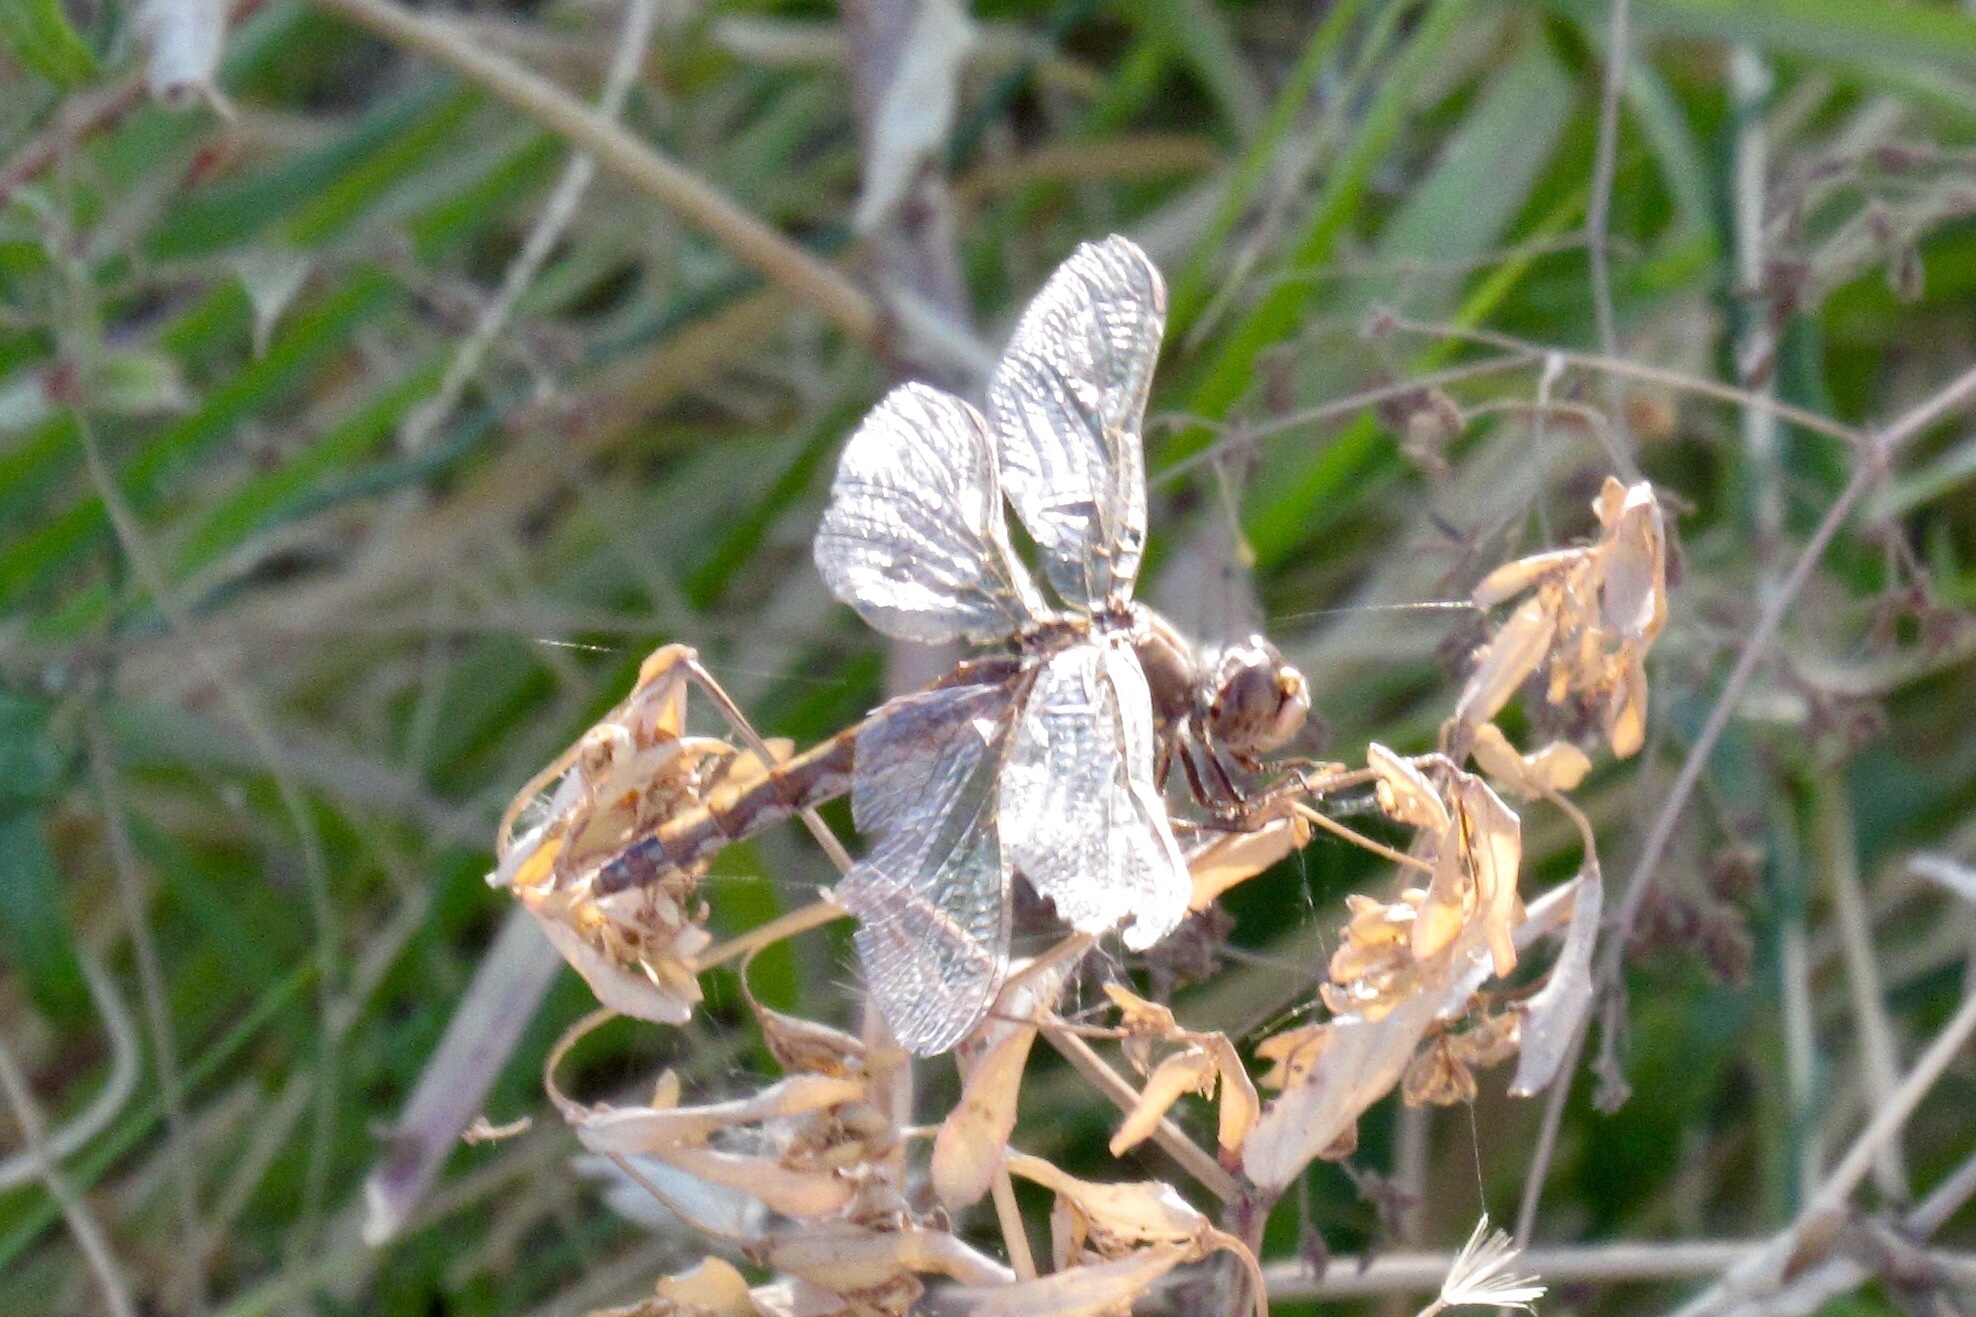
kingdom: Animalia
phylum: Arthropoda
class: Insecta
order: Odonata
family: Libellulidae
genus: Sympetrum
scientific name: Sympetrum corruptum
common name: Variegated meadowhawk
